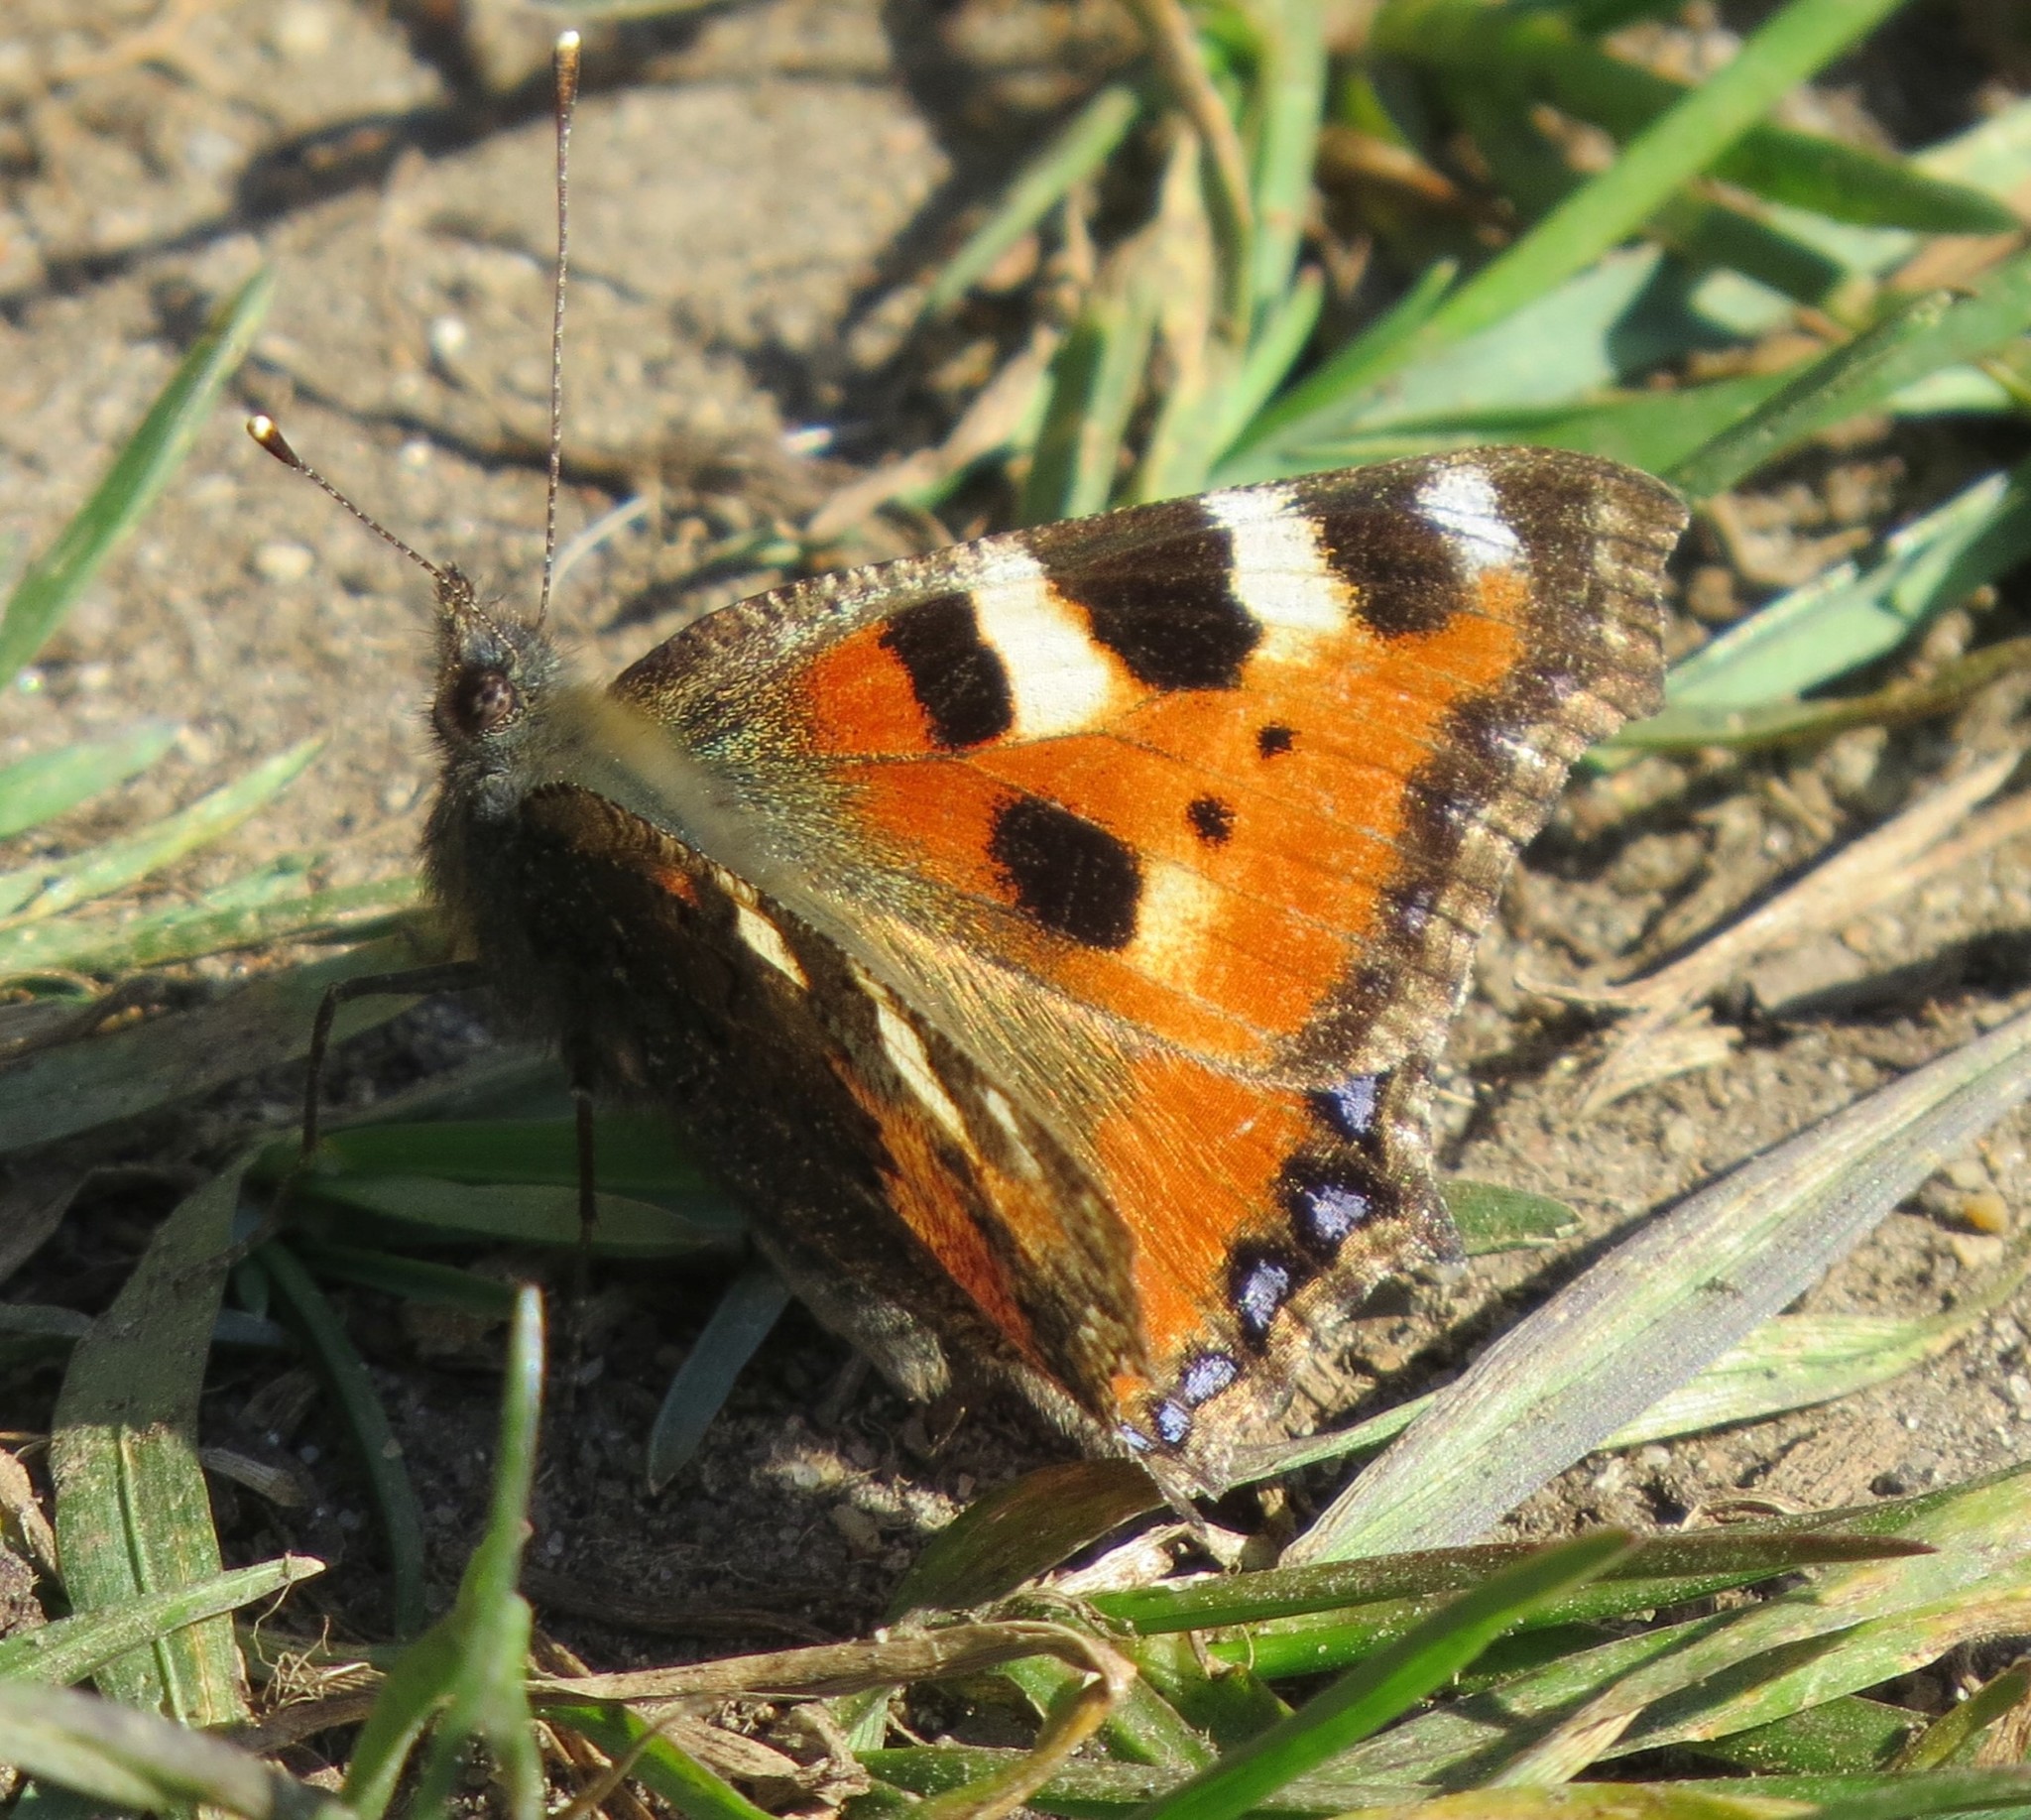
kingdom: Animalia
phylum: Arthropoda
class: Insecta
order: Lepidoptera
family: Nymphalidae
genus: Aglais
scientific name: Aglais urticae
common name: Small tortoiseshell
